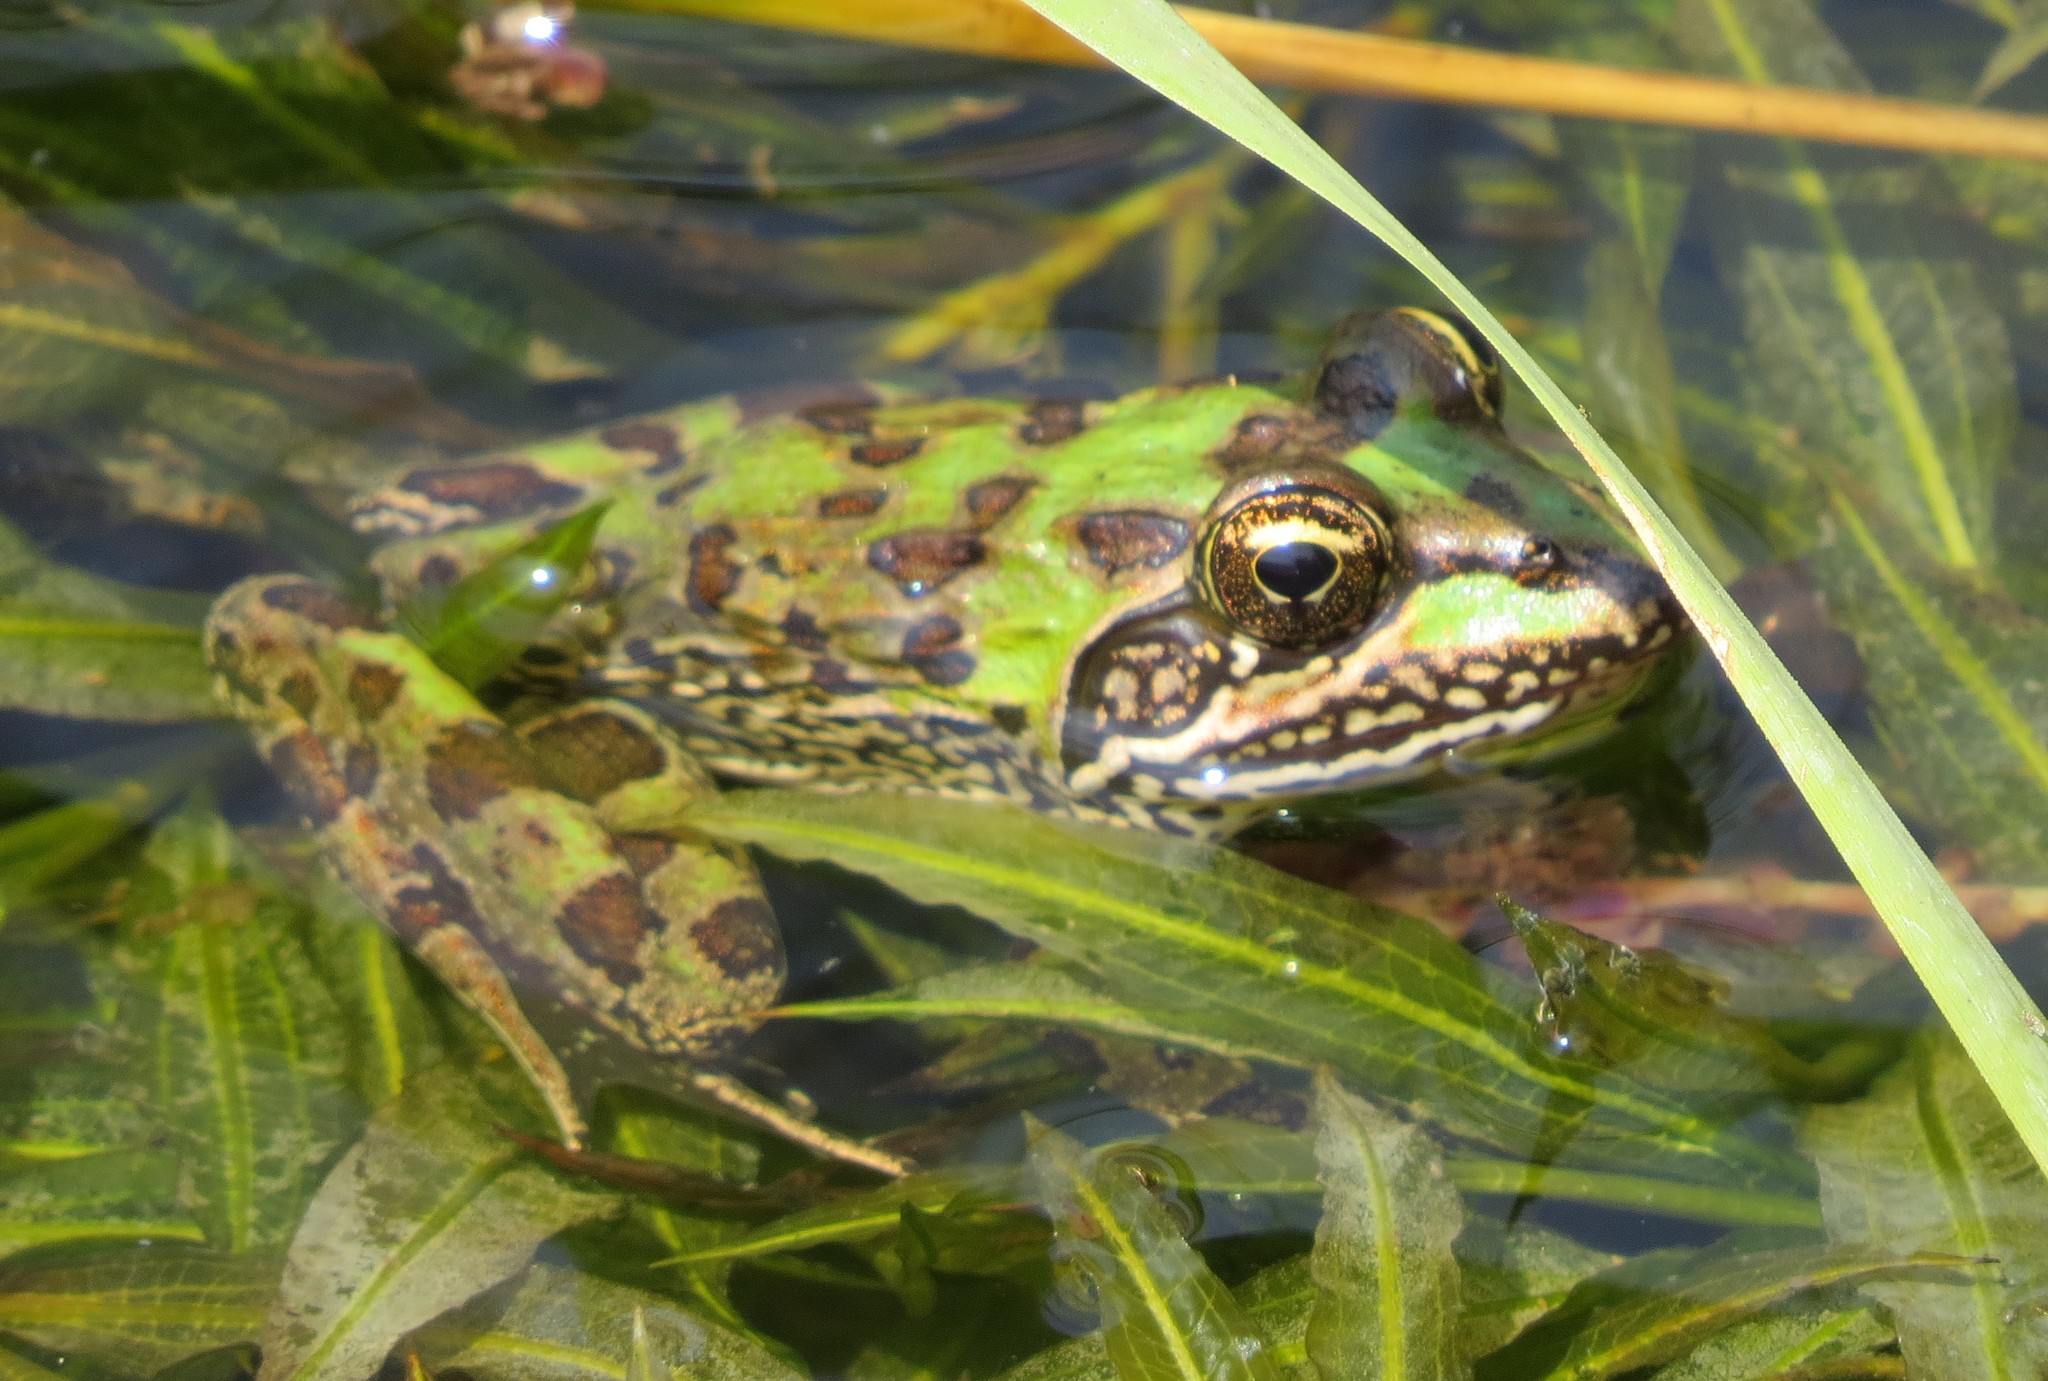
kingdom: Animalia
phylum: Chordata
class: Amphibia
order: Anura
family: Pyxicephalidae
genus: Amietia
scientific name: Amietia delalandii
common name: Delalande's river frog
